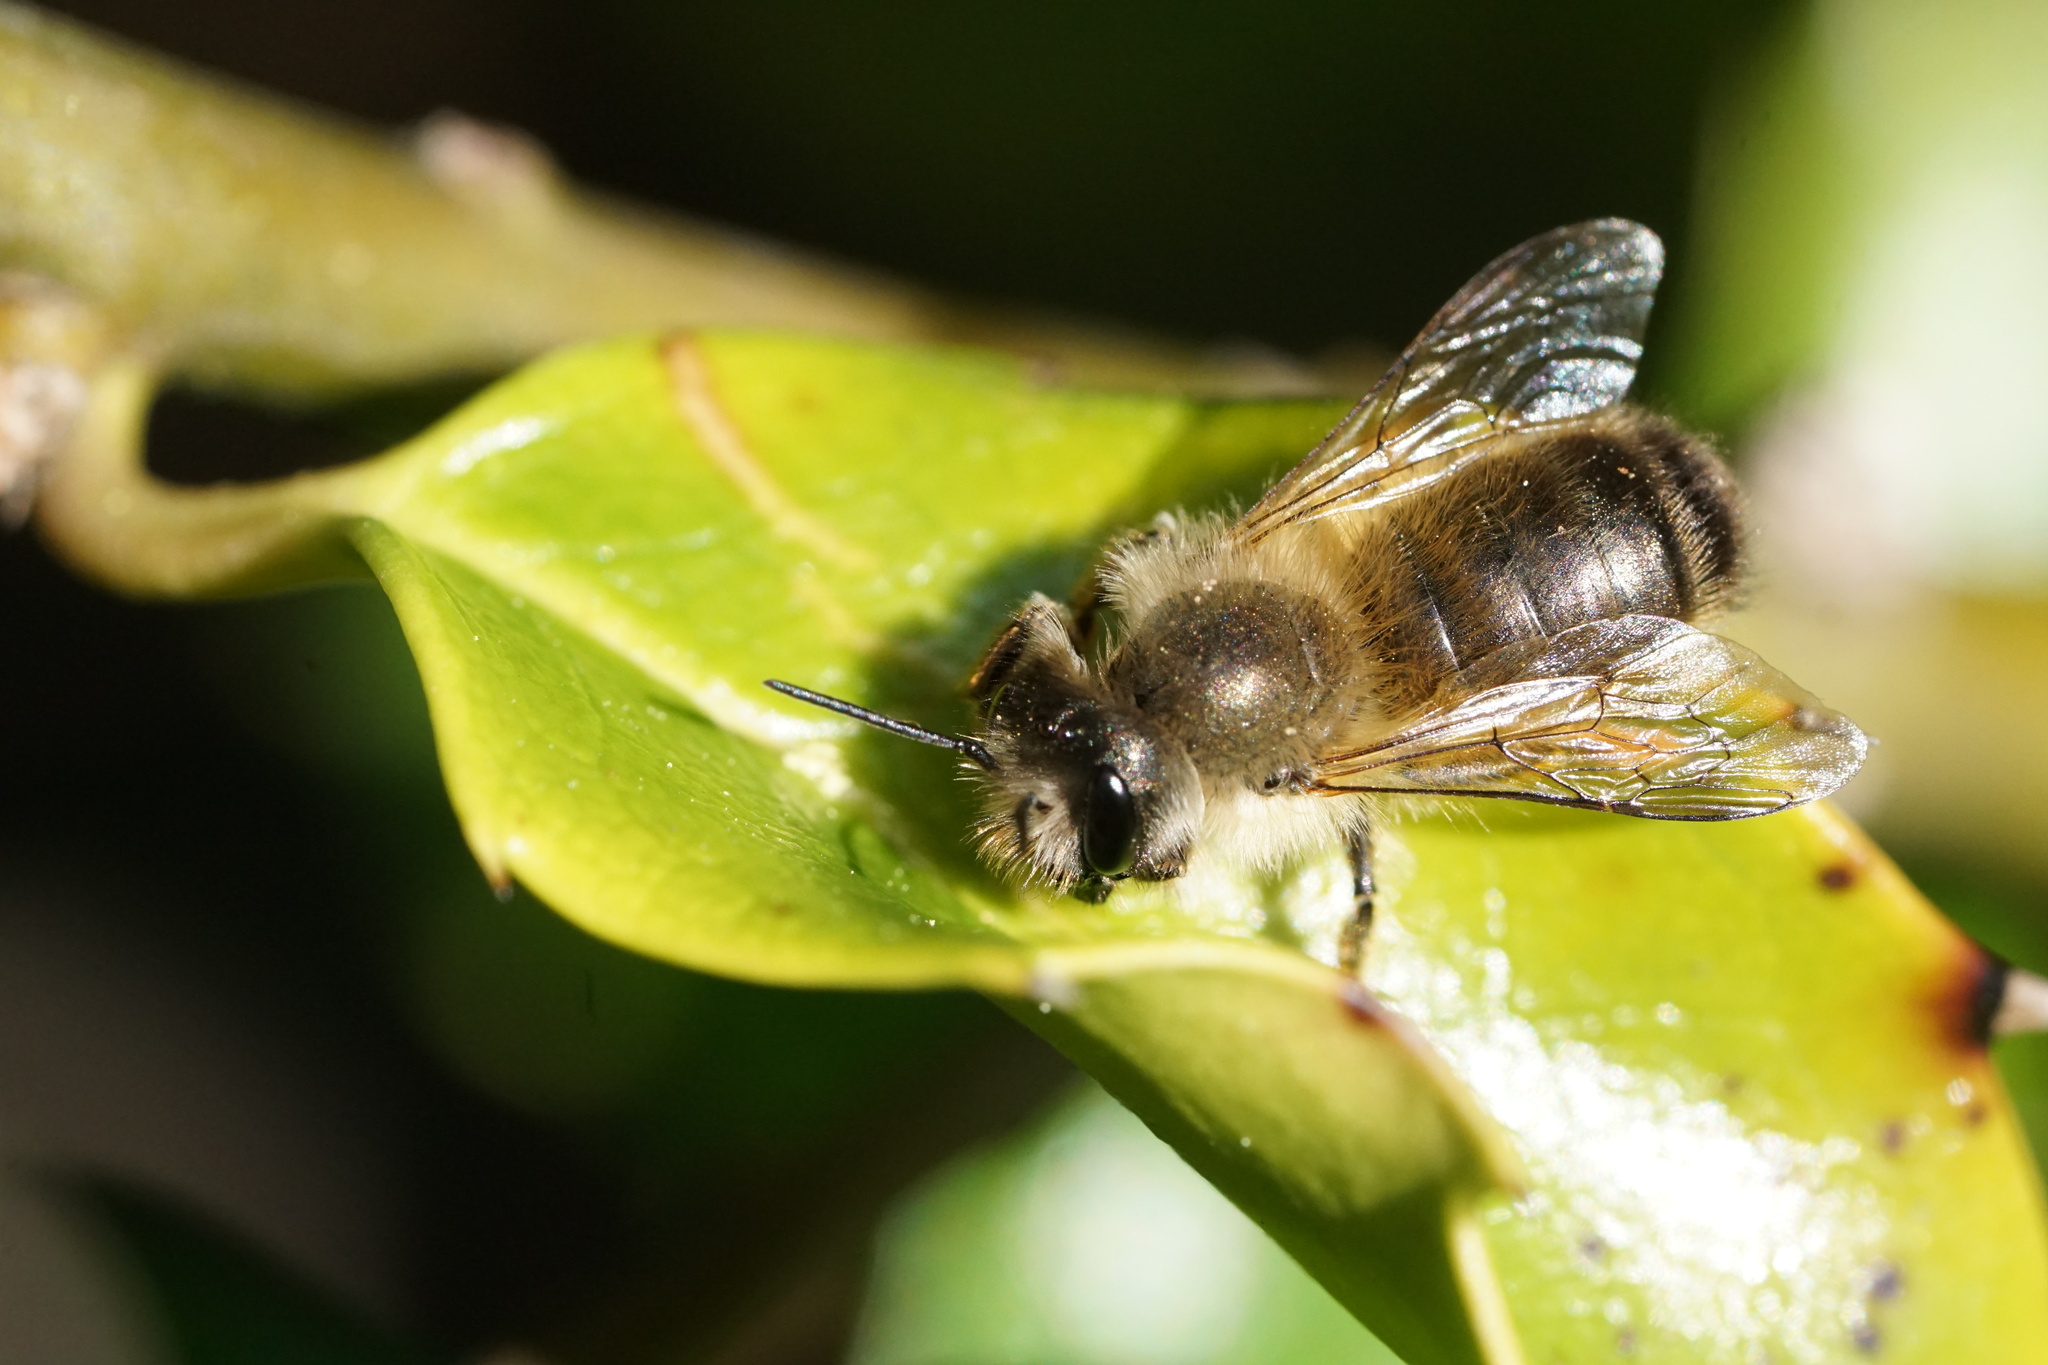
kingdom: Animalia
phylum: Arthropoda
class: Insecta
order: Hymenoptera
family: Megachilidae
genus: Osmia
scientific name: Osmia taurus
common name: Taurus mason bee
